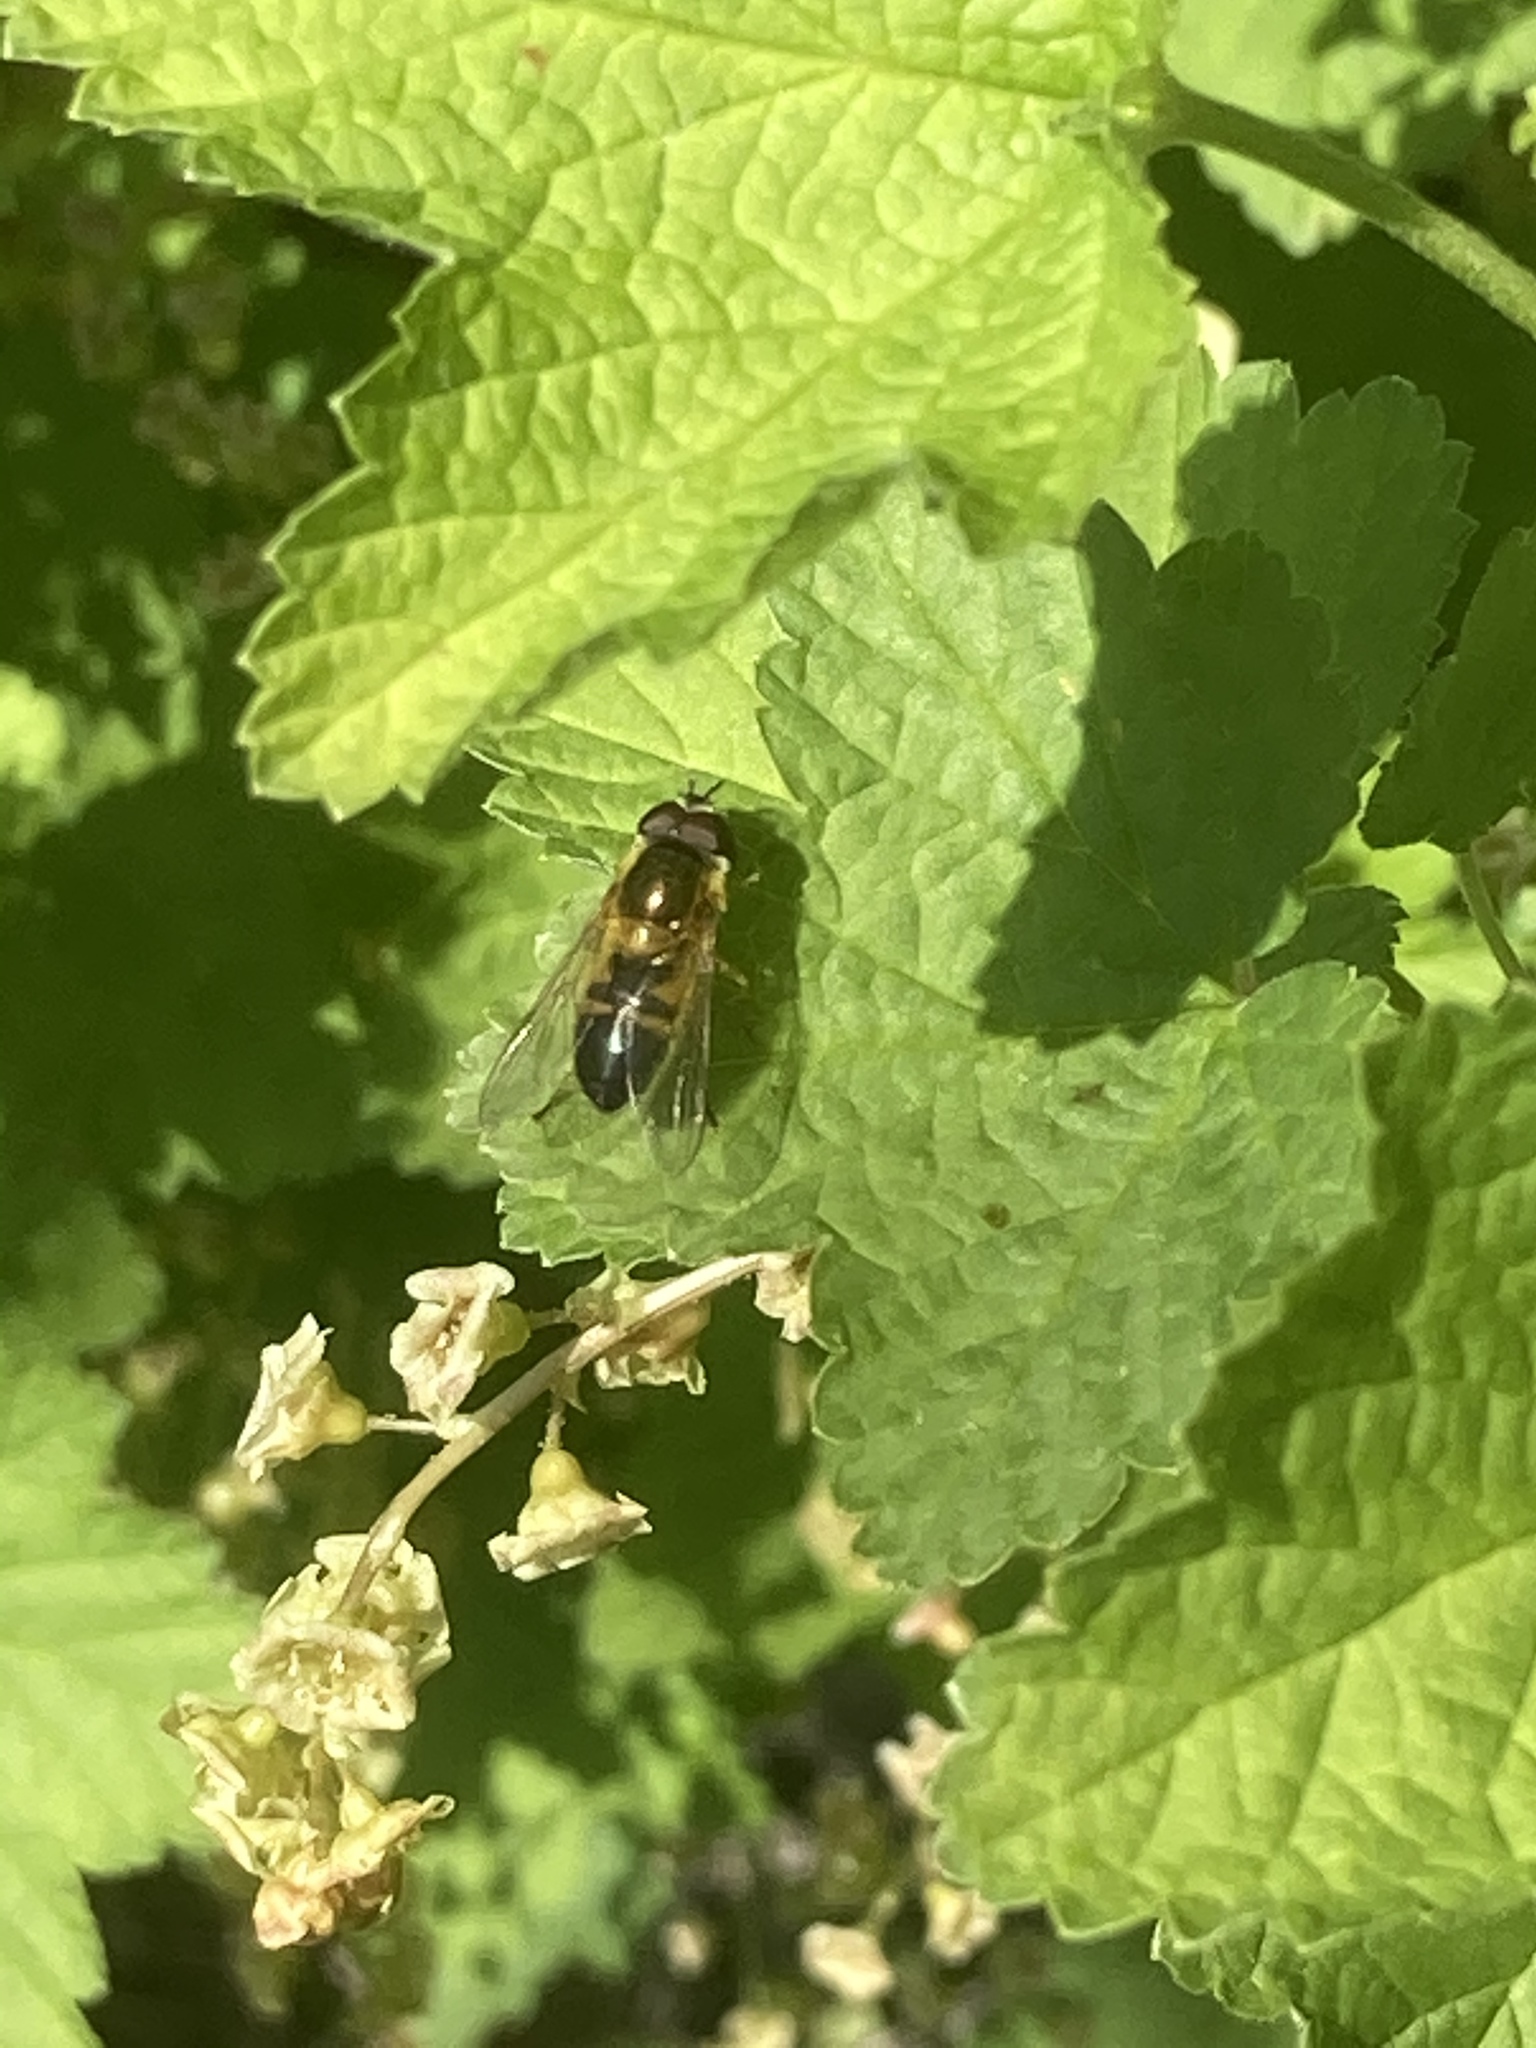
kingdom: Animalia
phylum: Arthropoda
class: Insecta
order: Diptera
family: Syrphidae
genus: Epistrophe
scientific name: Epistrophe eligans
